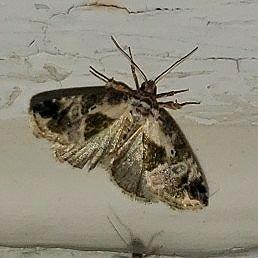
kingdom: Animalia
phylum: Arthropoda
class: Insecta
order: Lepidoptera
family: Noctuidae
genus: Maliattha
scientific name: Maliattha synochitis
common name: Black-dotted glyph
